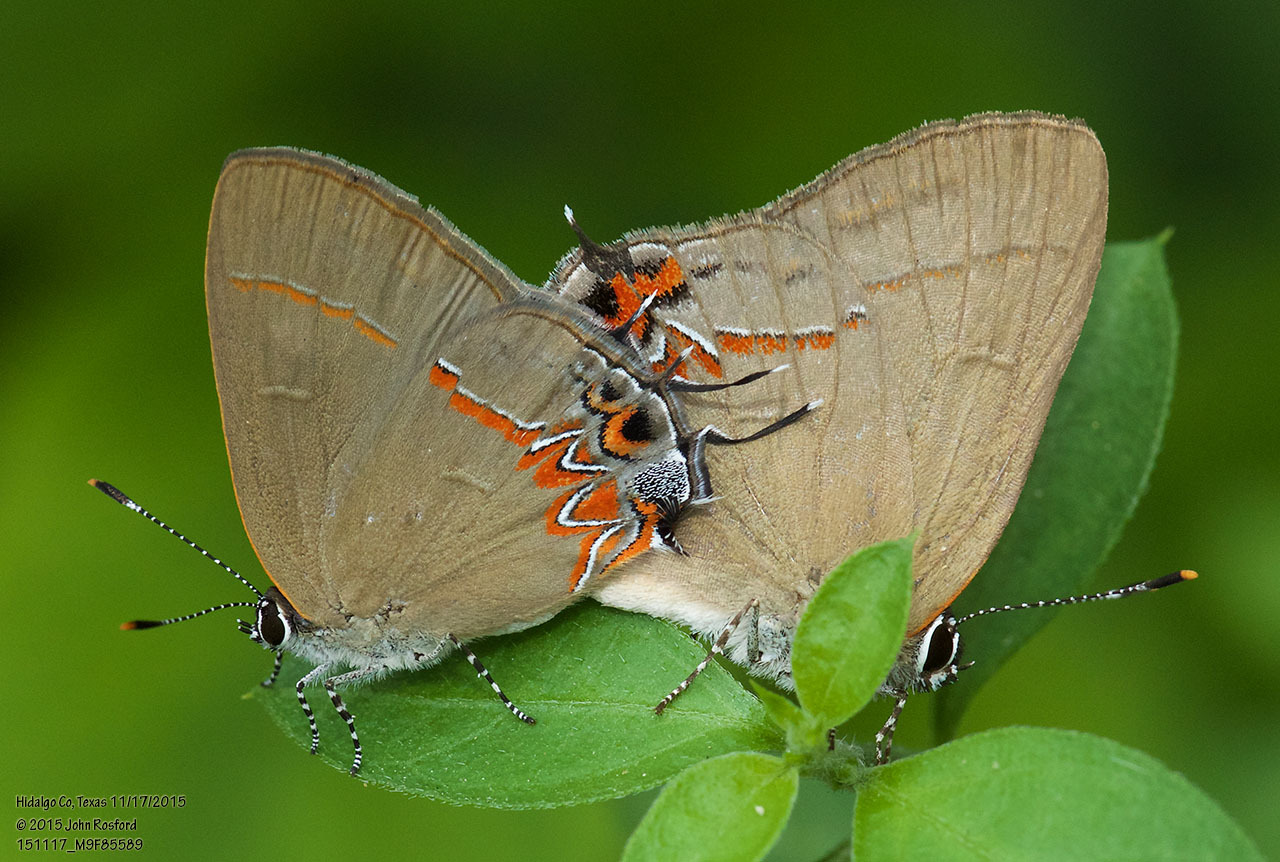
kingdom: Animalia
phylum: Arthropoda
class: Insecta
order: Lepidoptera
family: Lycaenidae
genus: Calycopis
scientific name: Calycopis isobeon
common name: Dusky-blue groundstreak
